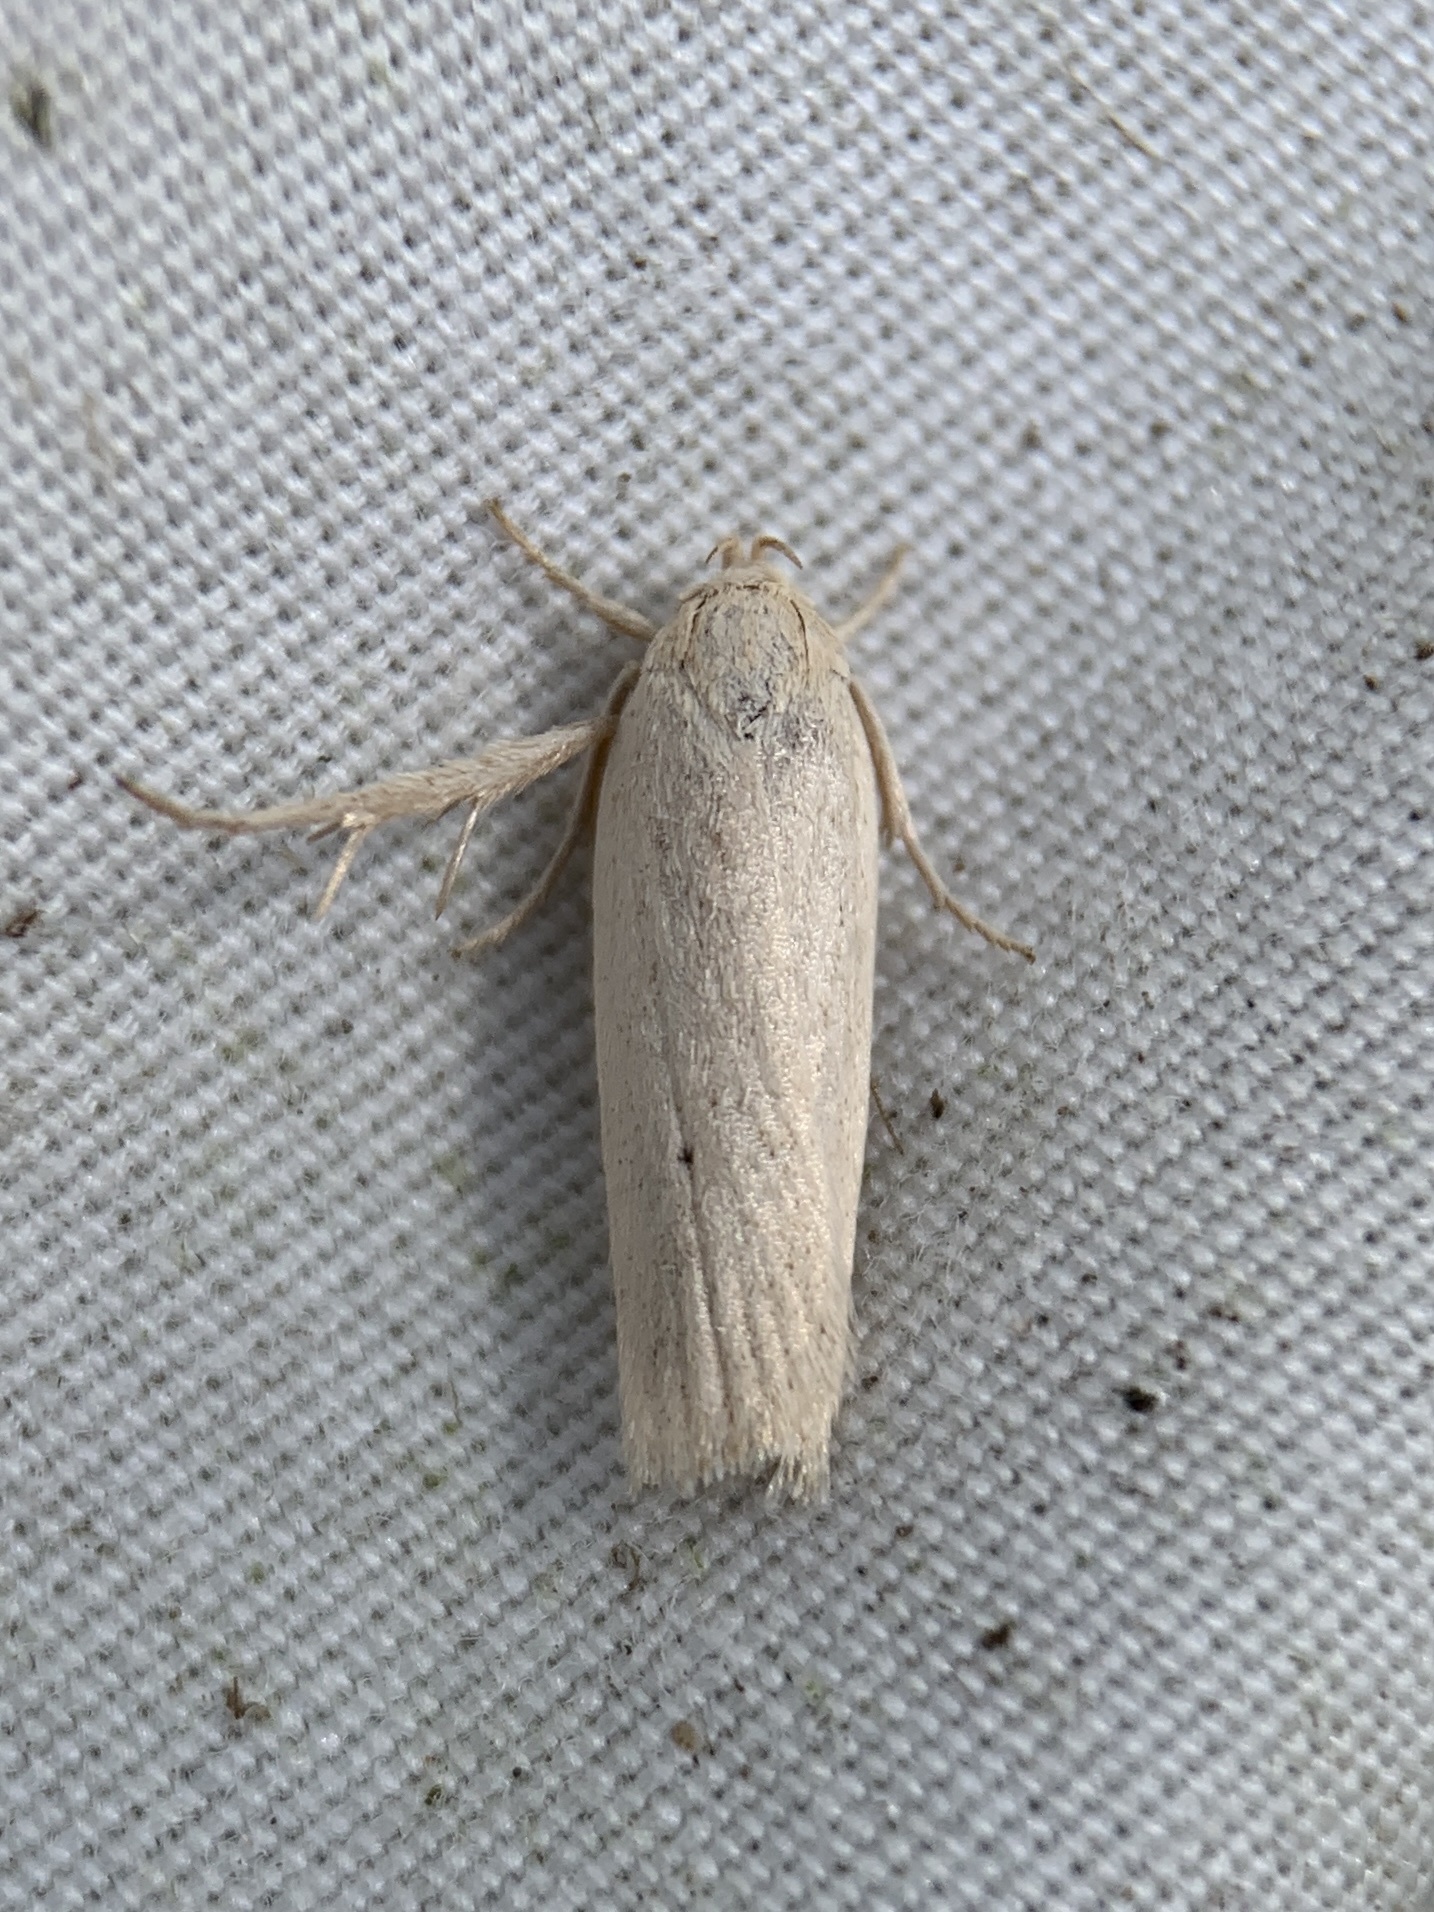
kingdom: Animalia
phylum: Arthropoda
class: Insecta
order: Lepidoptera
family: Depressariidae
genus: Gonioterma
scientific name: Gonioterma mistrella
